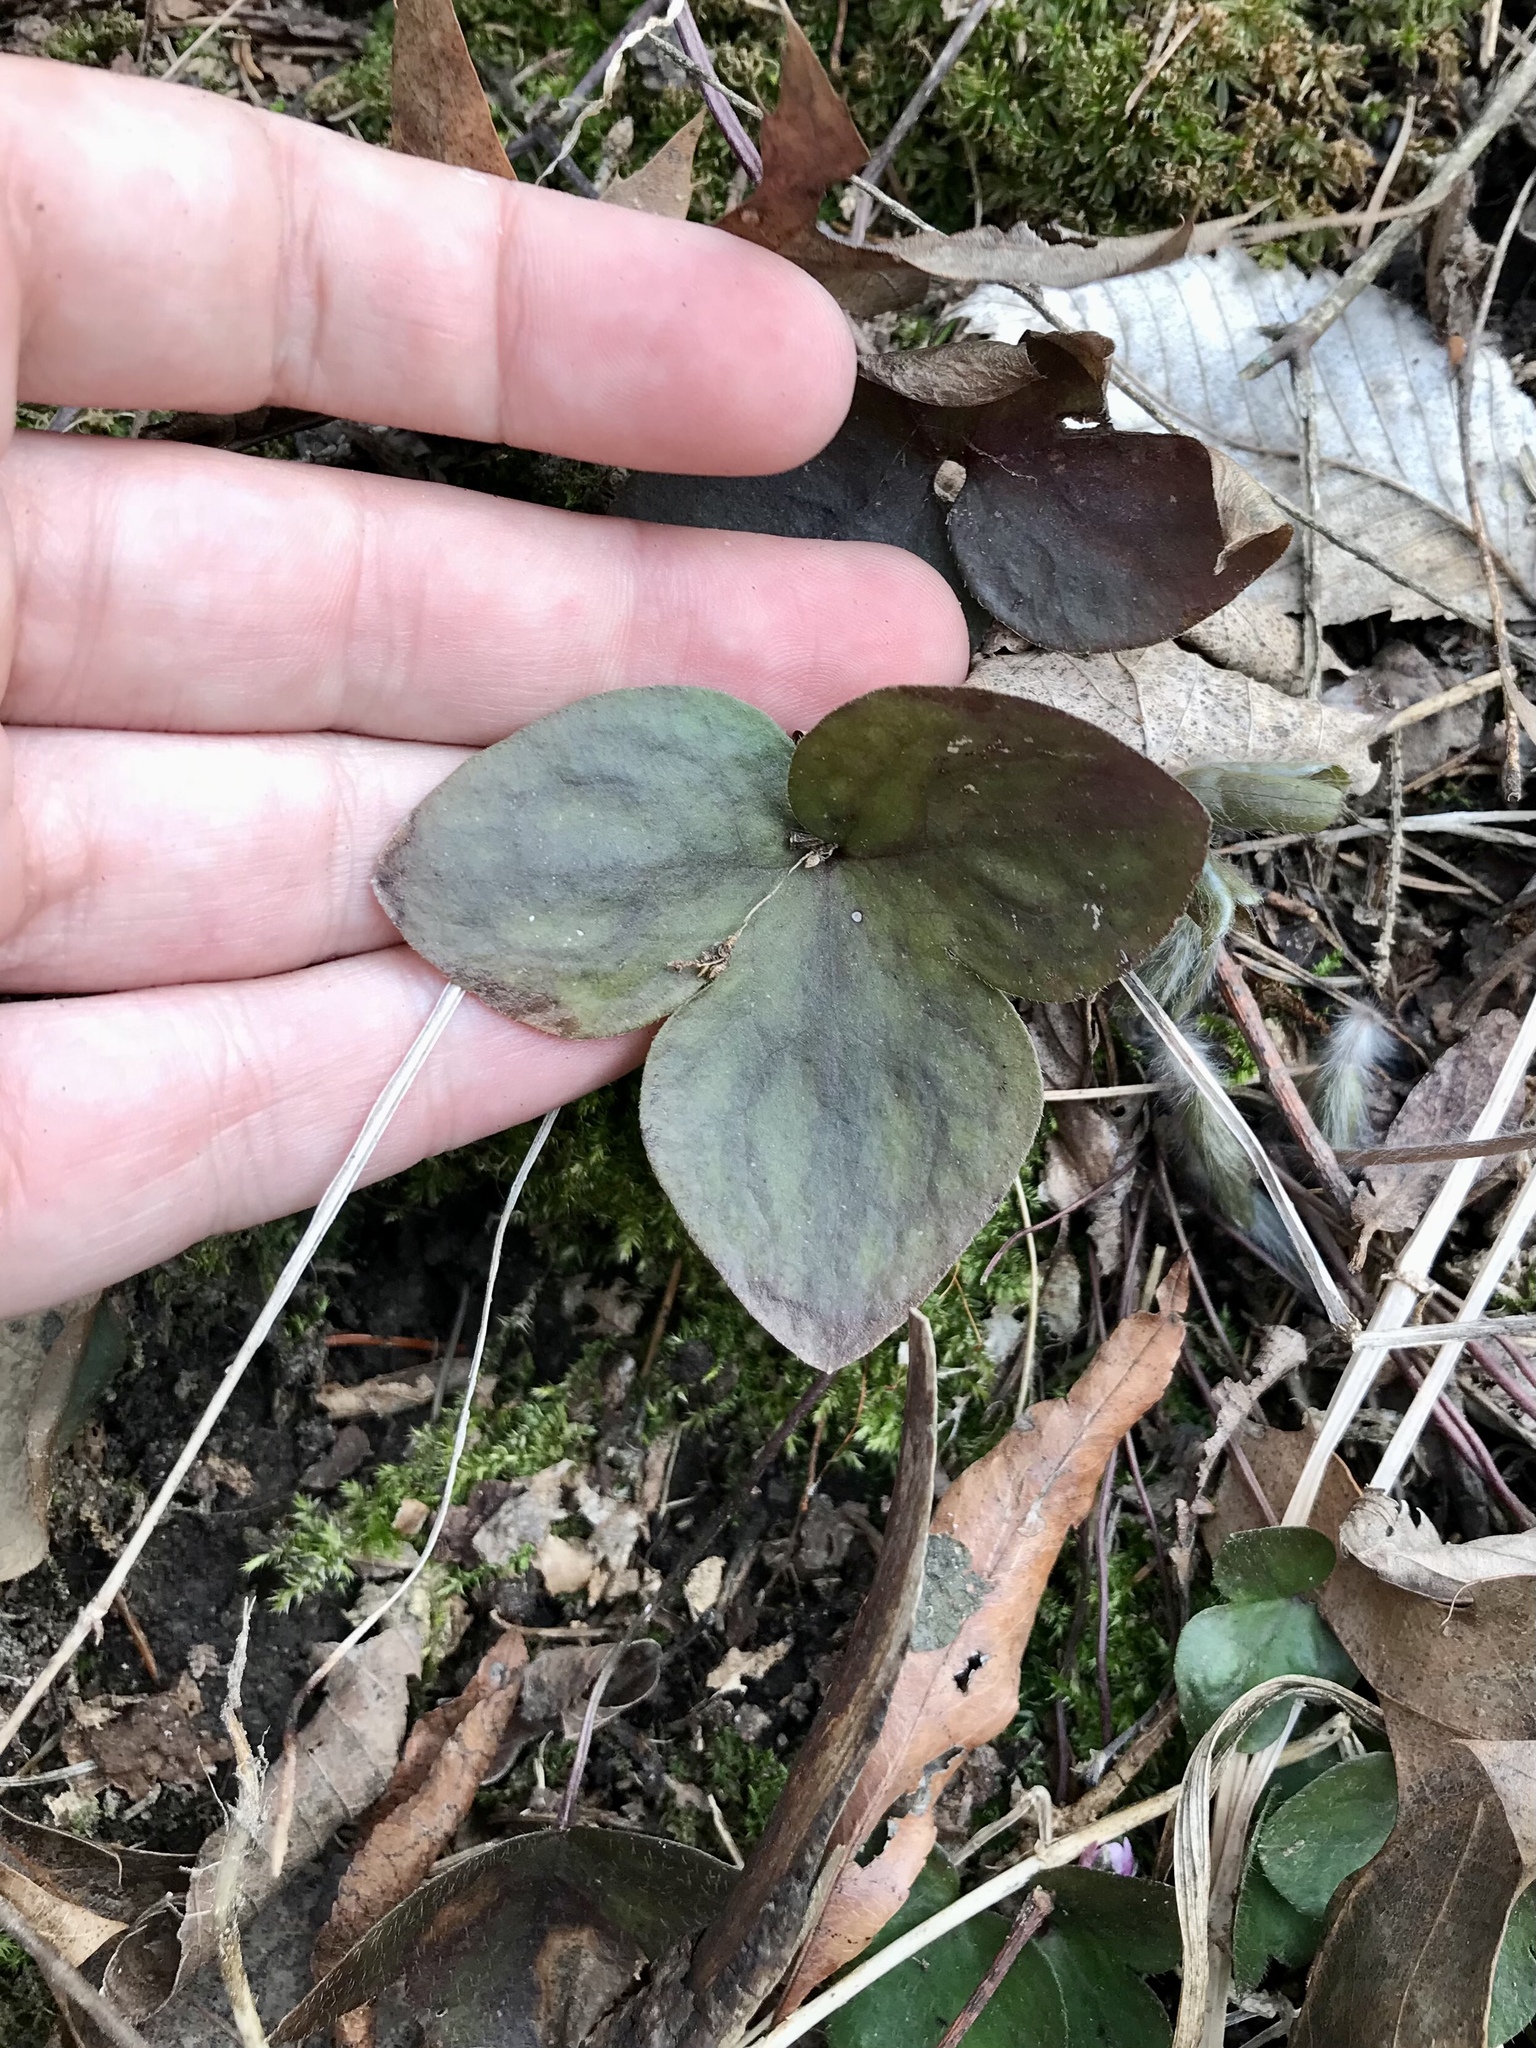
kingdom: Plantae
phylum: Tracheophyta
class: Magnoliopsida
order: Ranunculales
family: Ranunculaceae
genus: Hepatica
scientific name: Hepatica acutiloba
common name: Sharp-lobed hepatica
